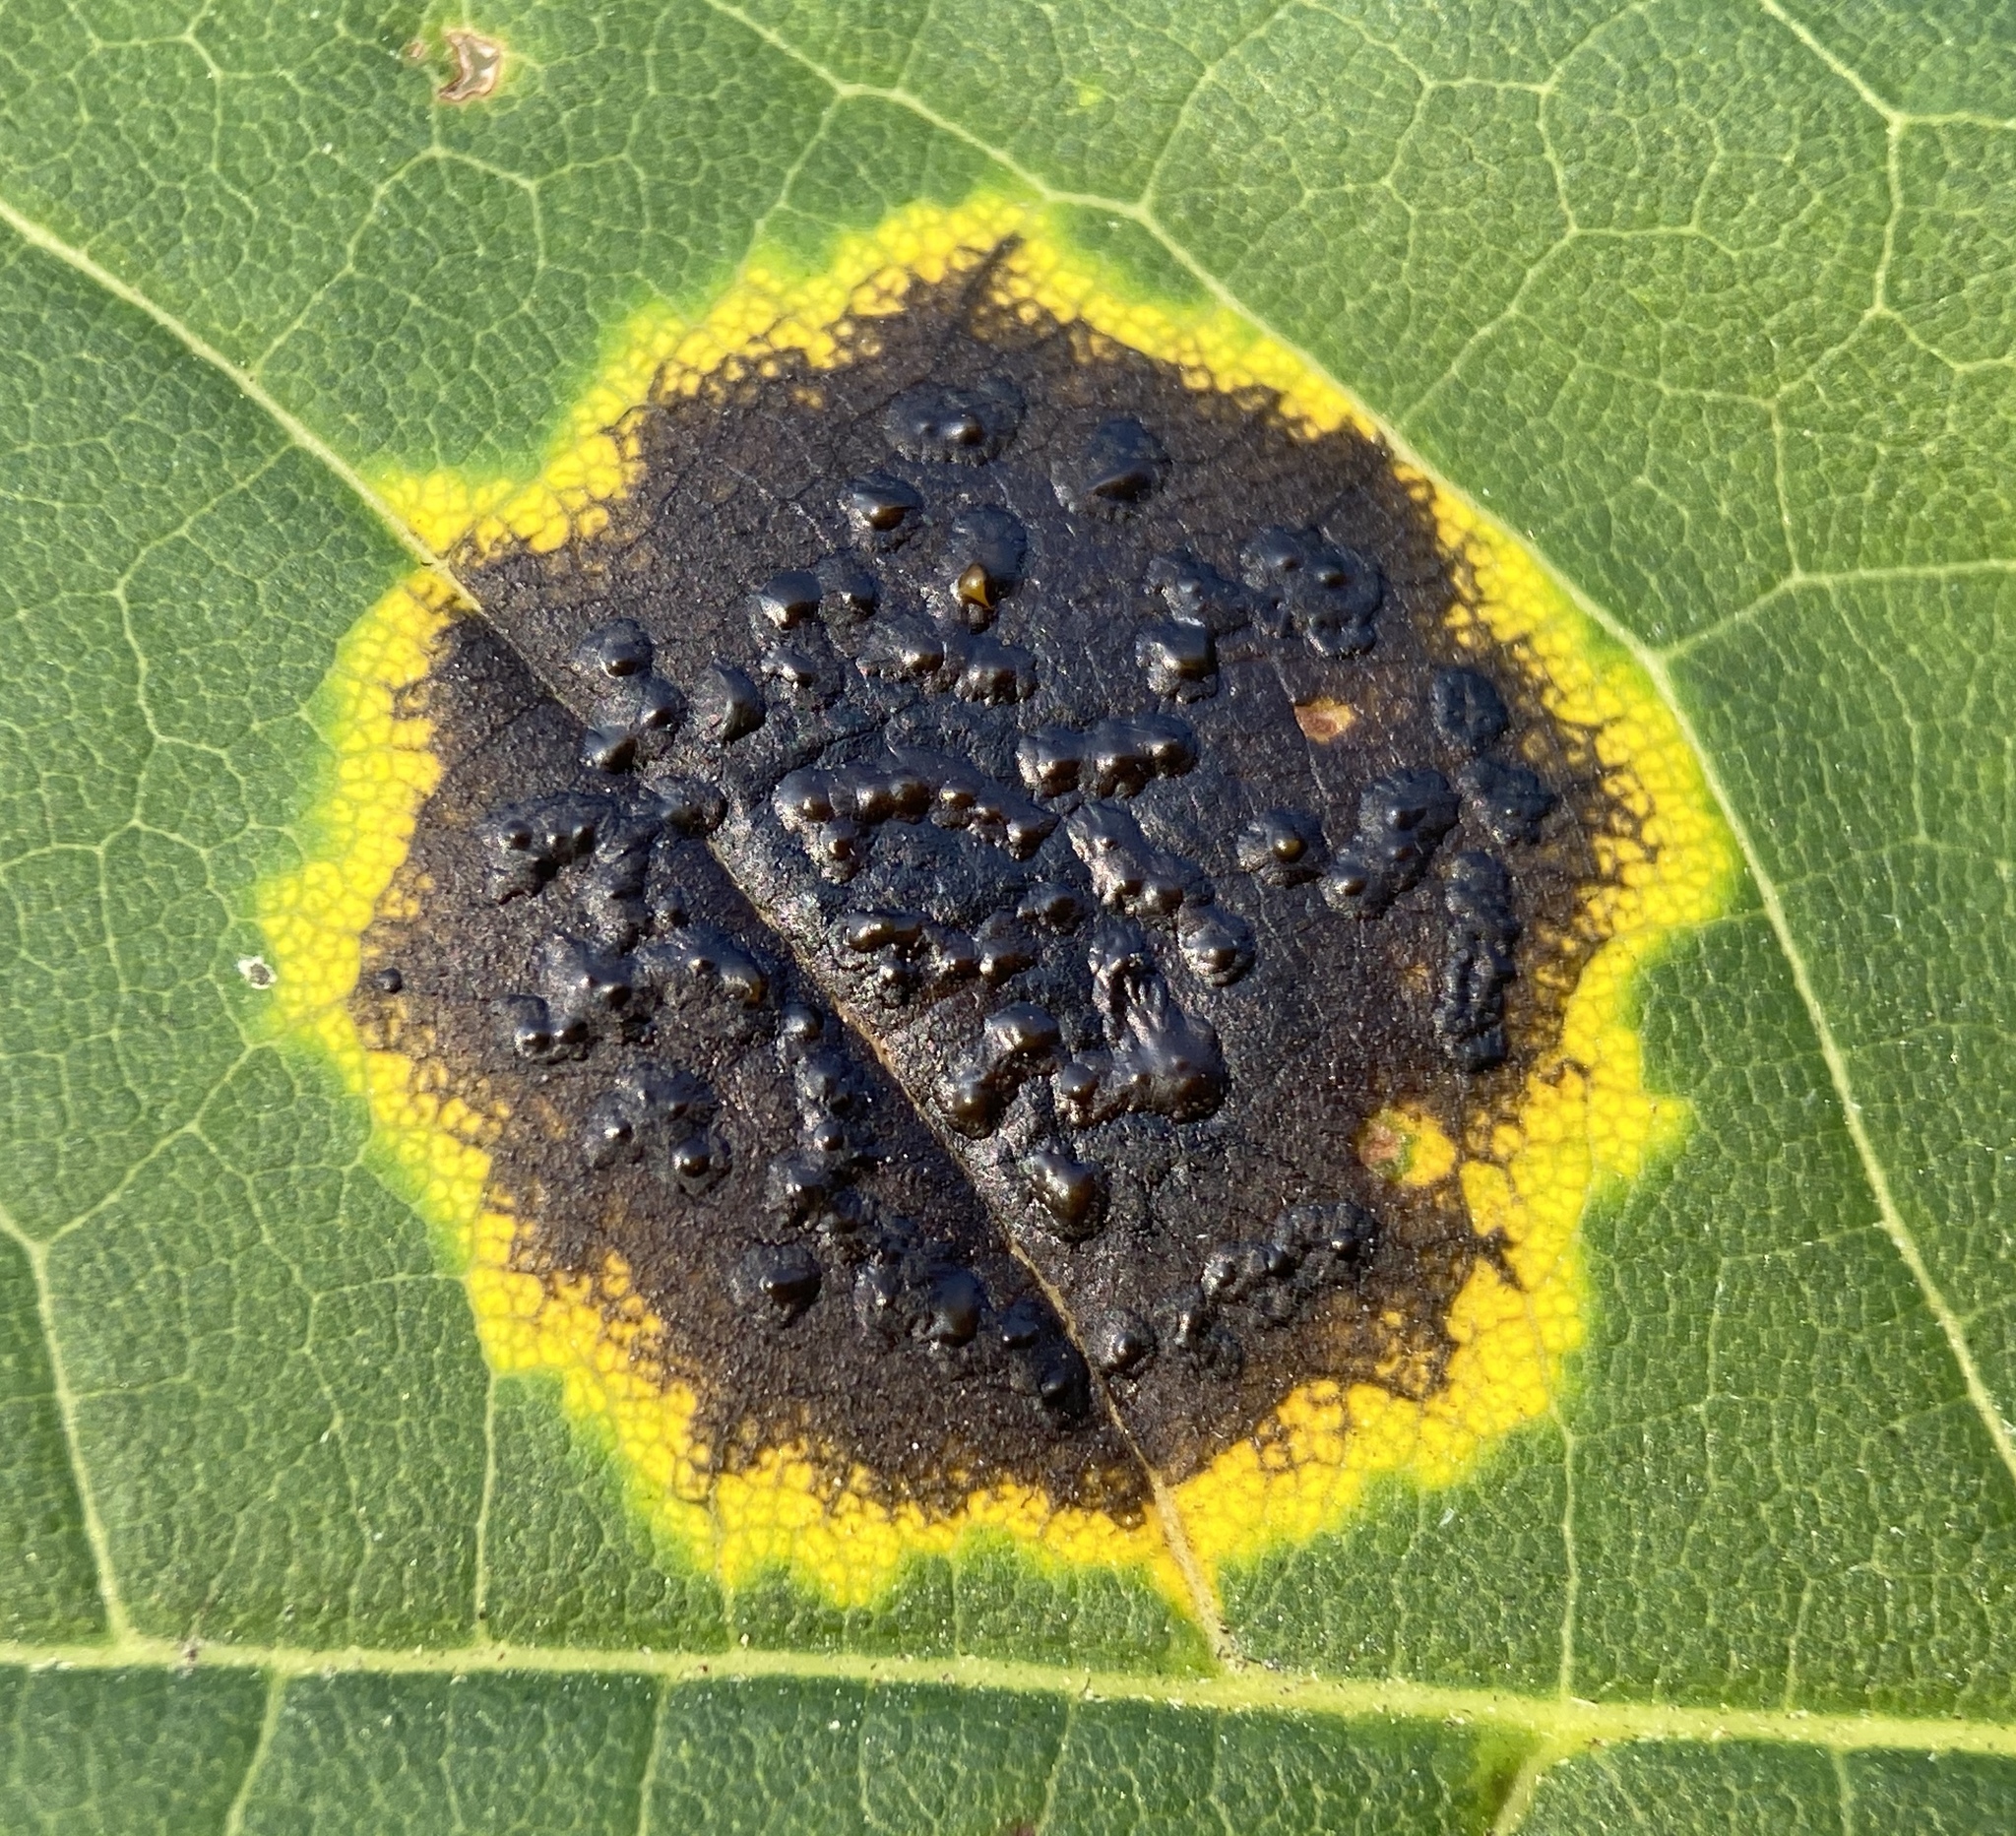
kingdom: Fungi
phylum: Ascomycota
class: Leotiomycetes
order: Rhytismatales
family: Rhytismataceae
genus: Rhytisma
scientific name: Rhytisma acerinum
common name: European tar spot
